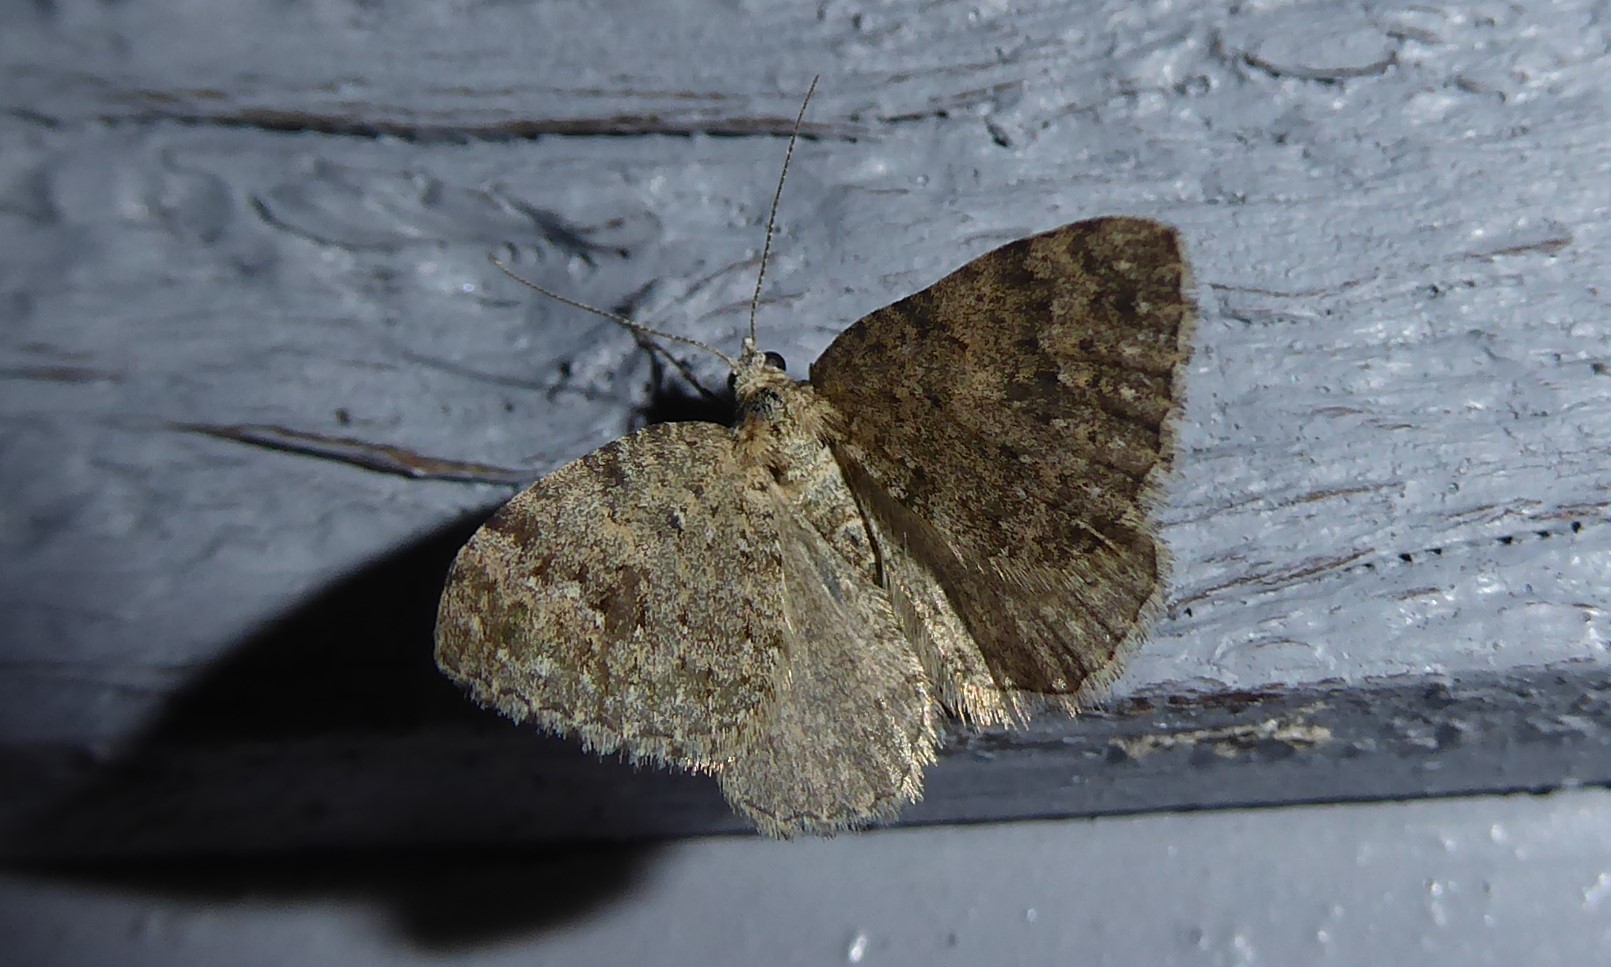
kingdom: Animalia
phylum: Arthropoda
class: Insecta
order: Lepidoptera
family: Geometridae
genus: Helastia
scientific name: Helastia corcularia
